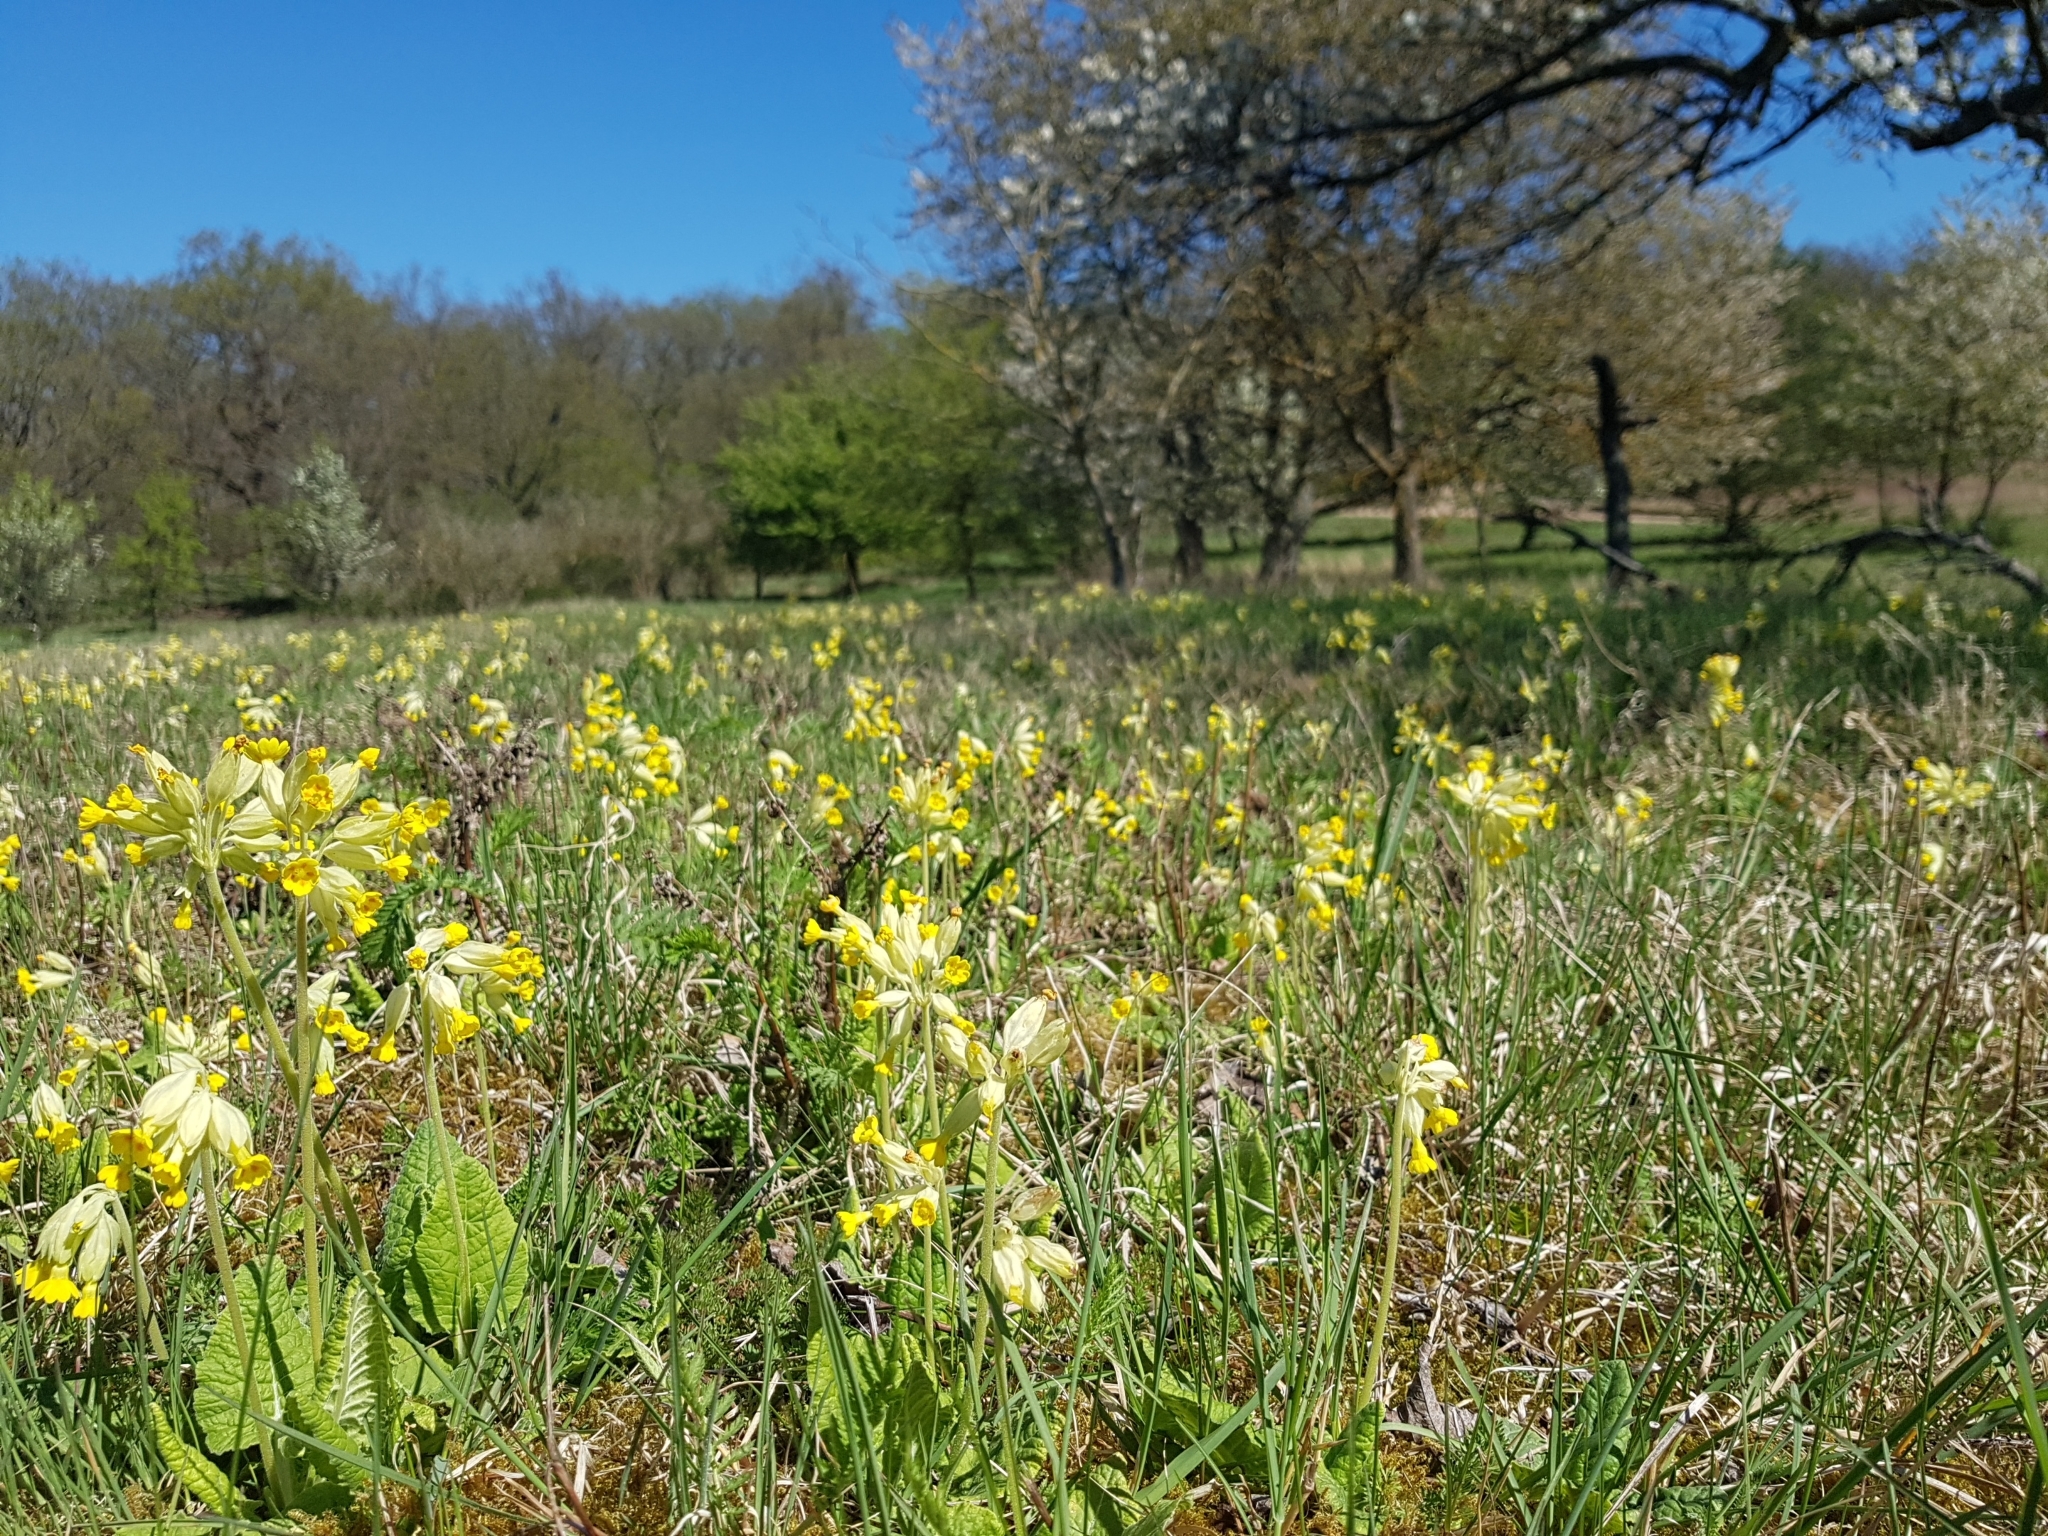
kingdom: Plantae
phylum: Tracheophyta
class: Magnoliopsida
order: Ericales
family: Primulaceae
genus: Primula
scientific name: Primula veris
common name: Cowslip
